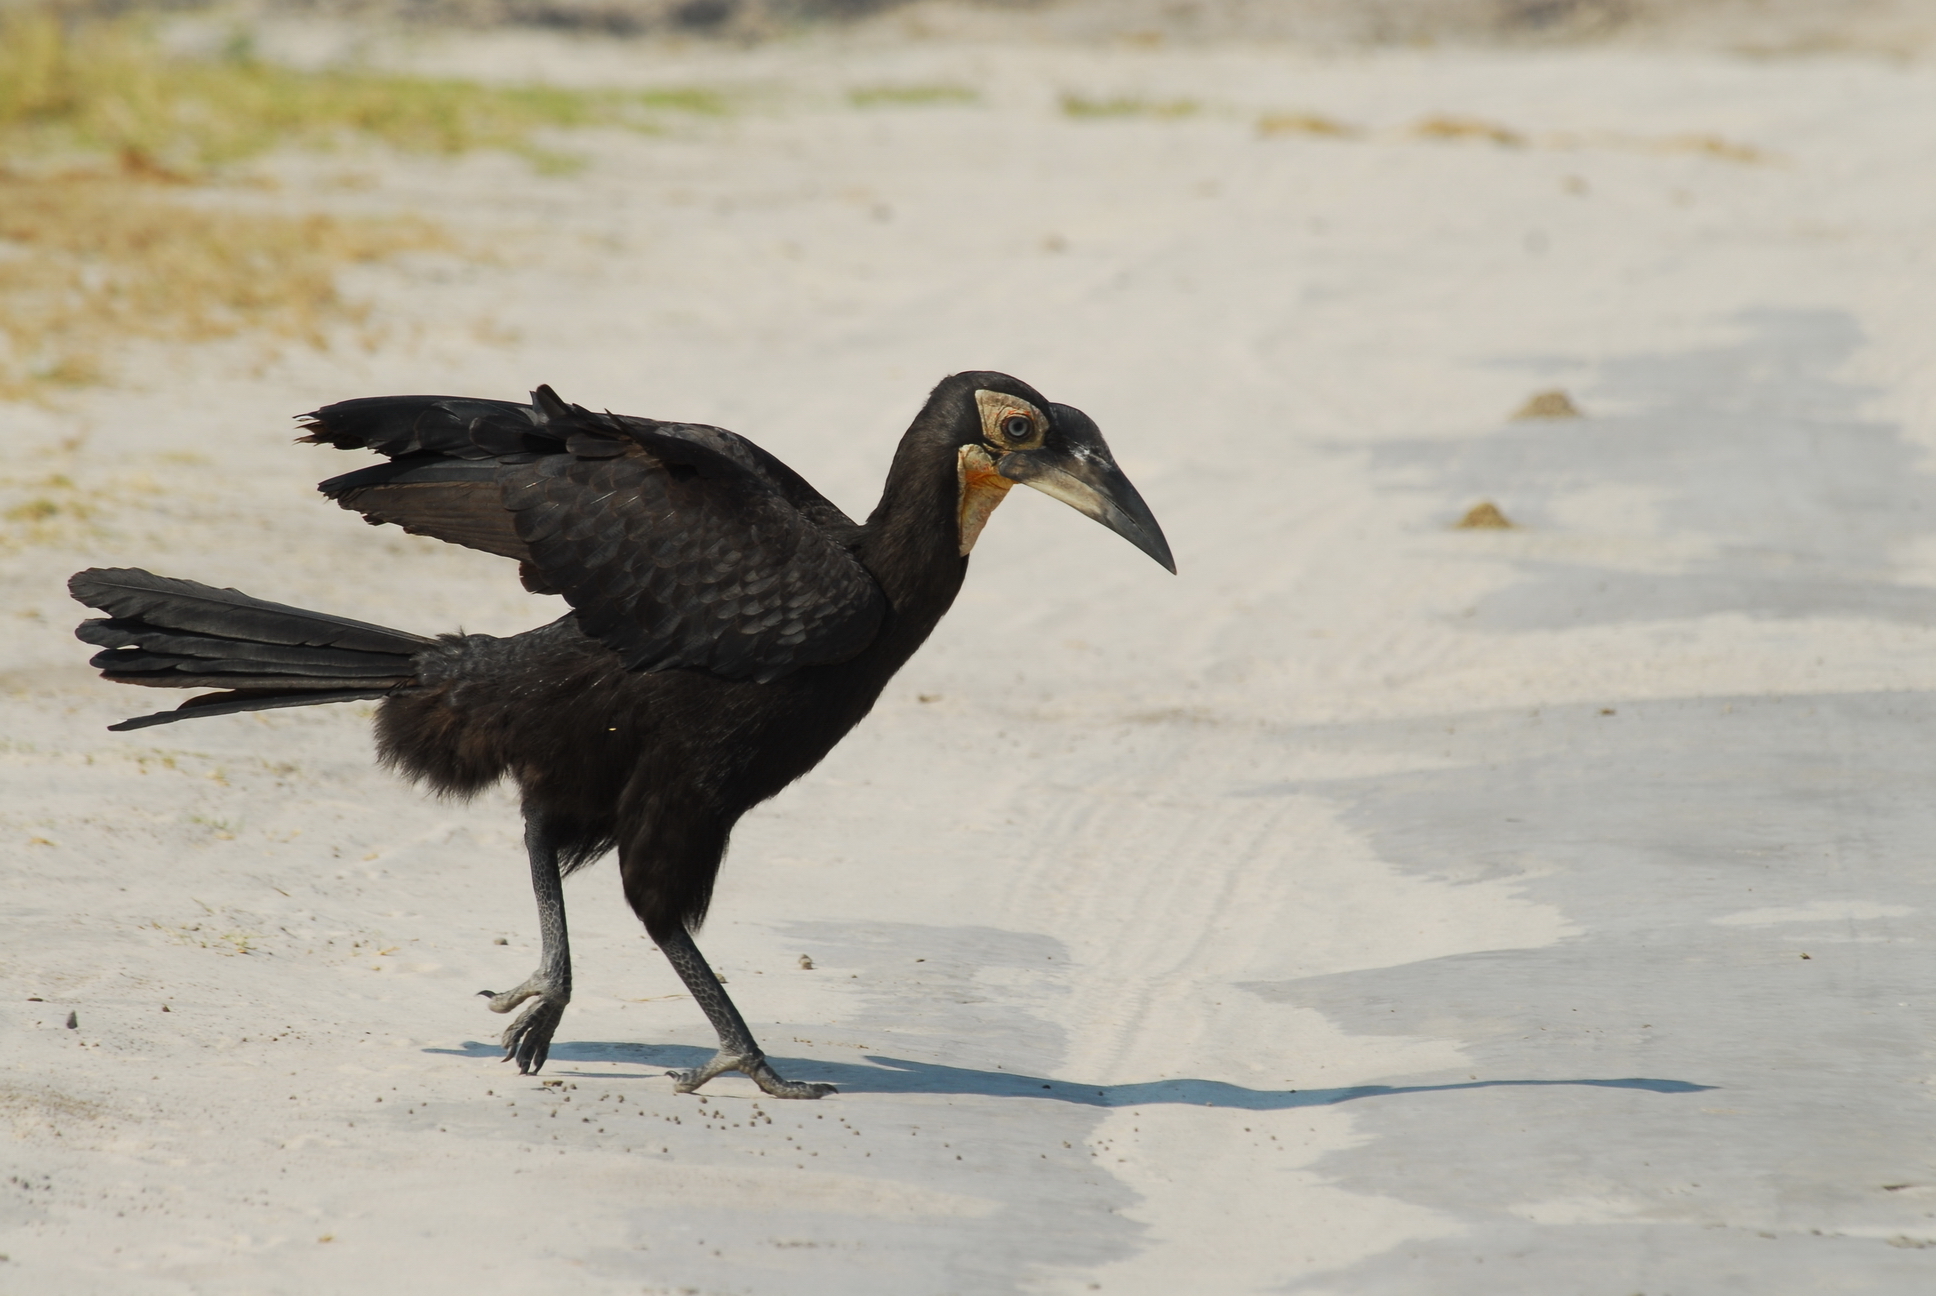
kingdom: Animalia
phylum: Chordata
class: Aves
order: Bucerotiformes
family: Bucorvidae
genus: Bucorvus
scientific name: Bucorvus leadbeateri
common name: Southern ground-hornbill
